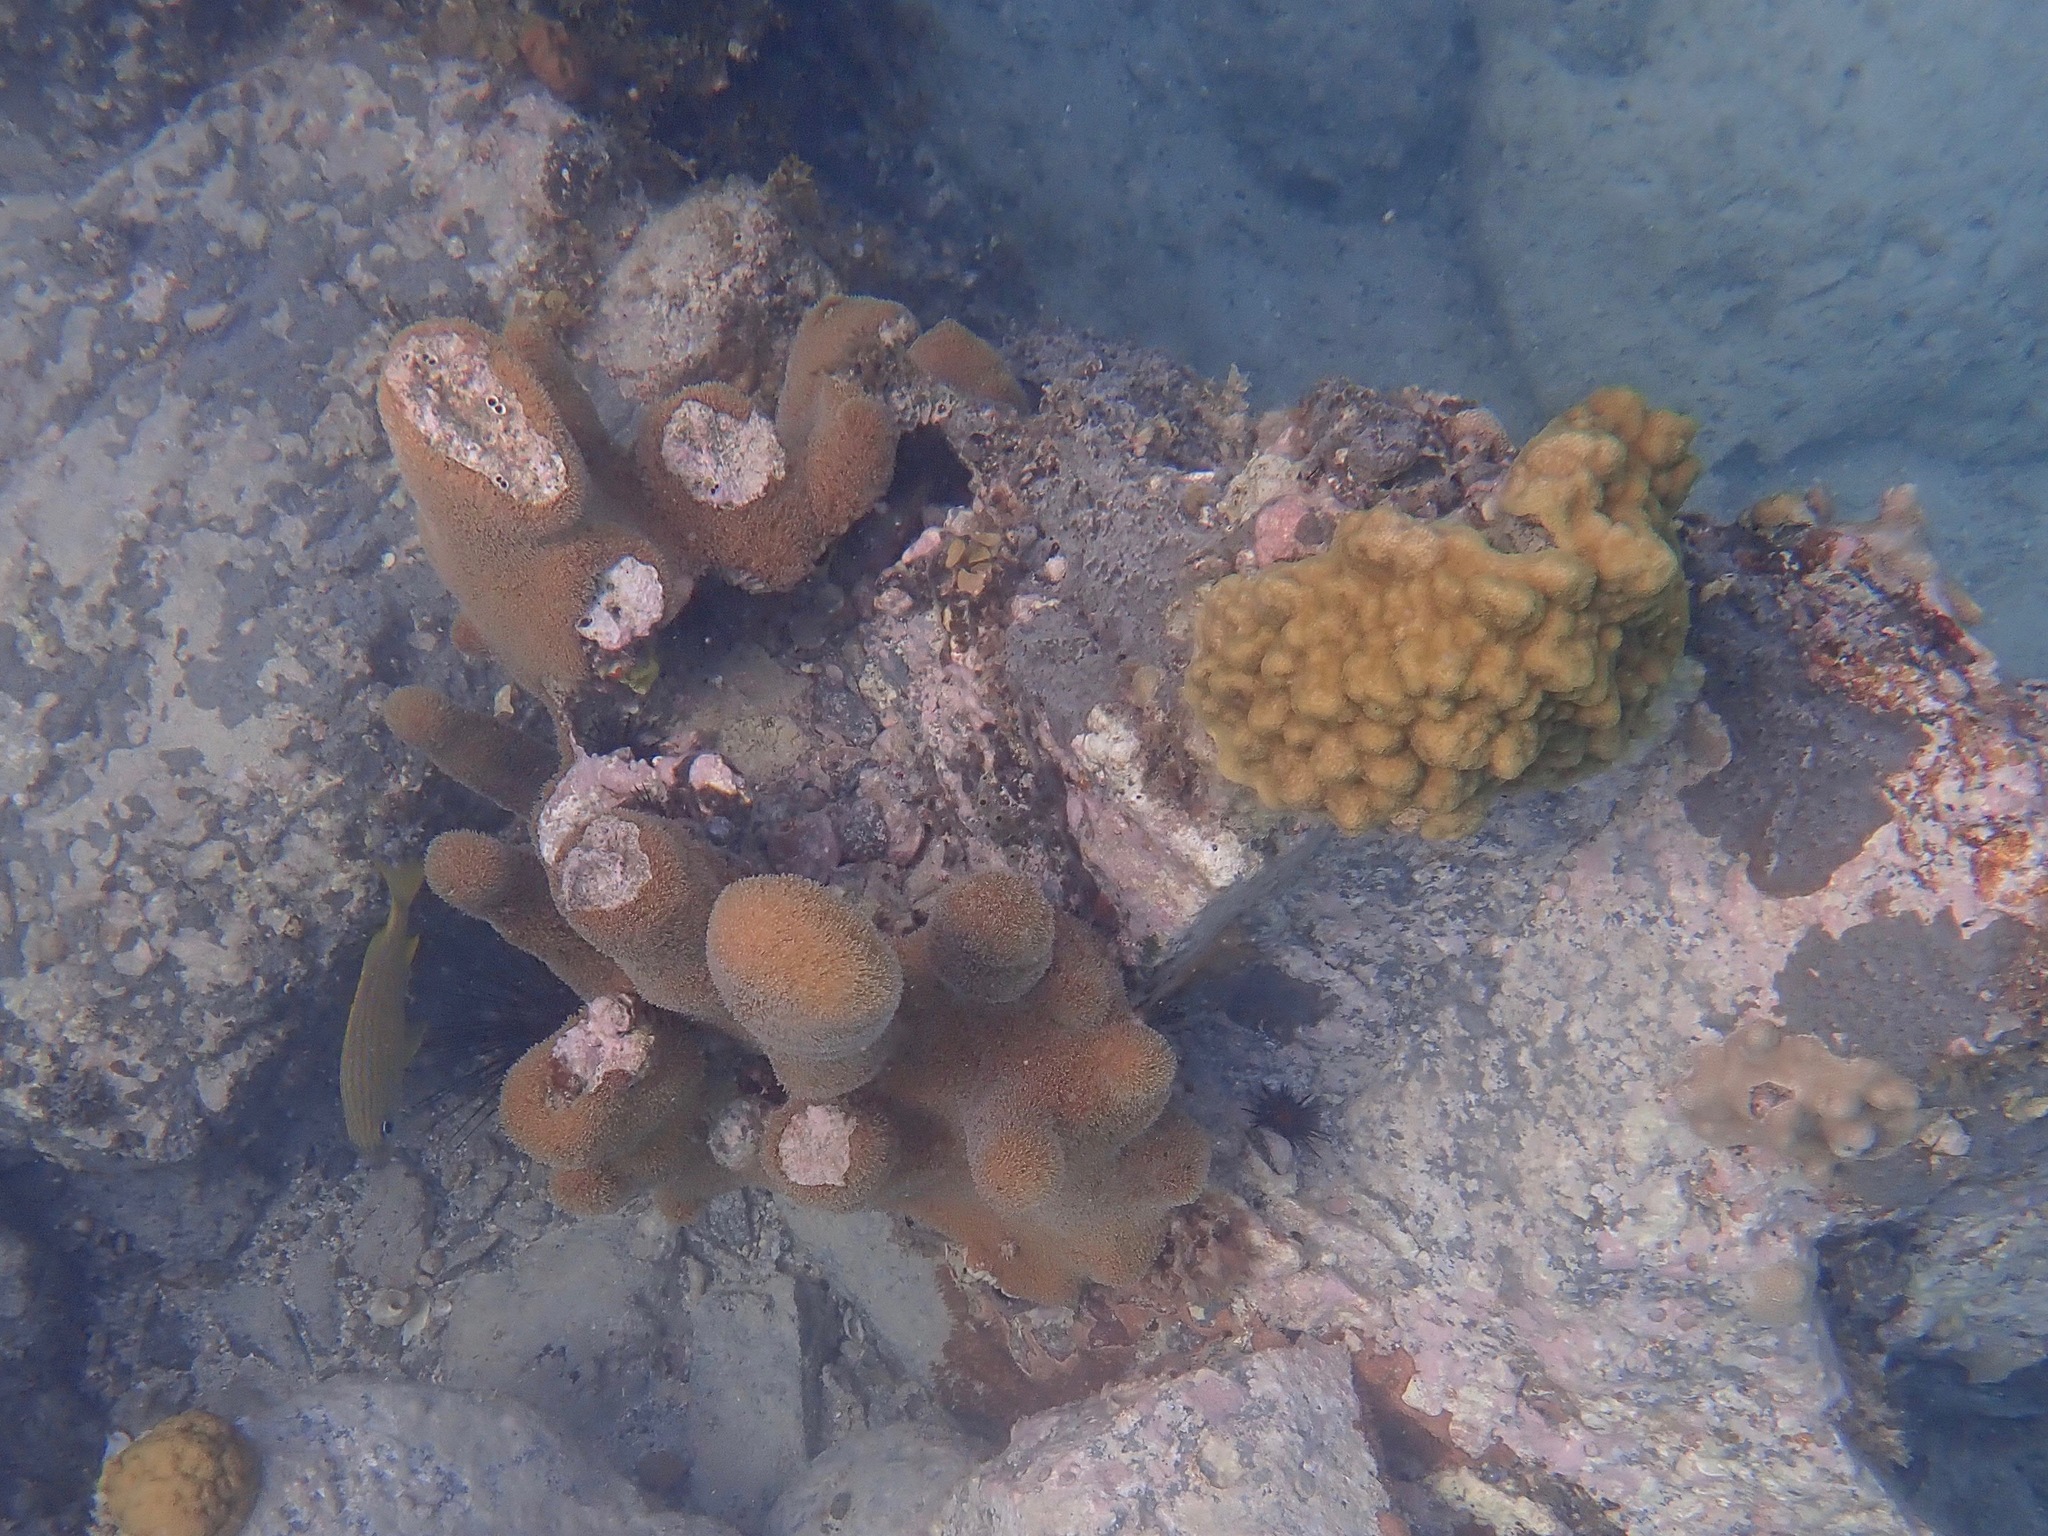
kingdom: Animalia
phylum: Cnidaria
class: Anthozoa
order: Scleractinia
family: Meandrinidae
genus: Dendrogyra
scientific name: Dendrogyra cylindrus
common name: Pillar coral
